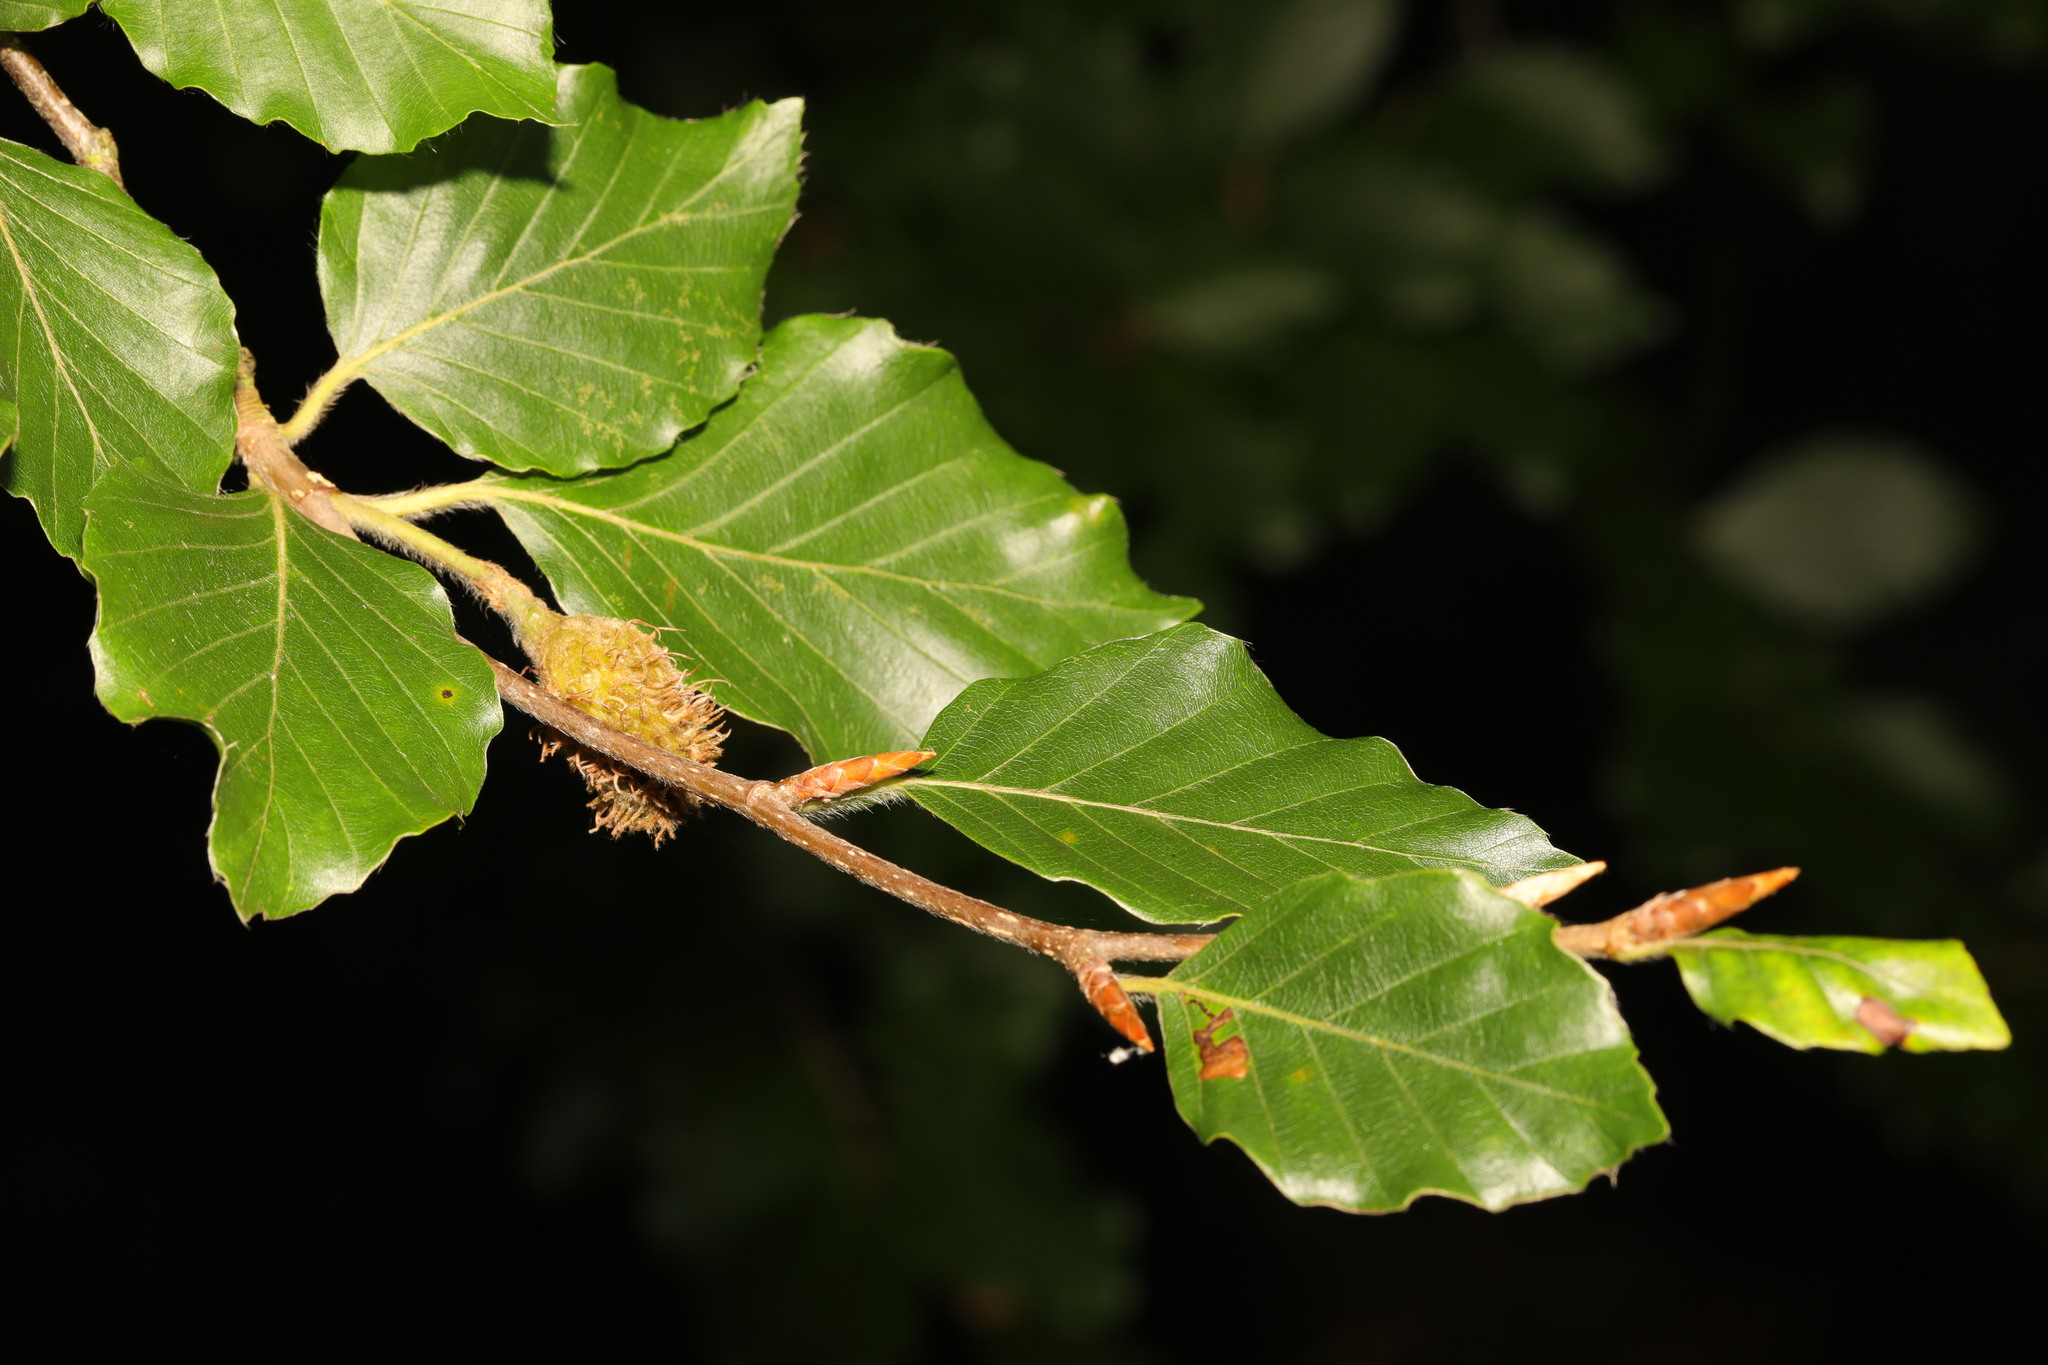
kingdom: Plantae
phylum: Tracheophyta
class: Magnoliopsida
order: Fagales
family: Fagaceae
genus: Fagus
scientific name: Fagus sylvatica
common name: Beech
